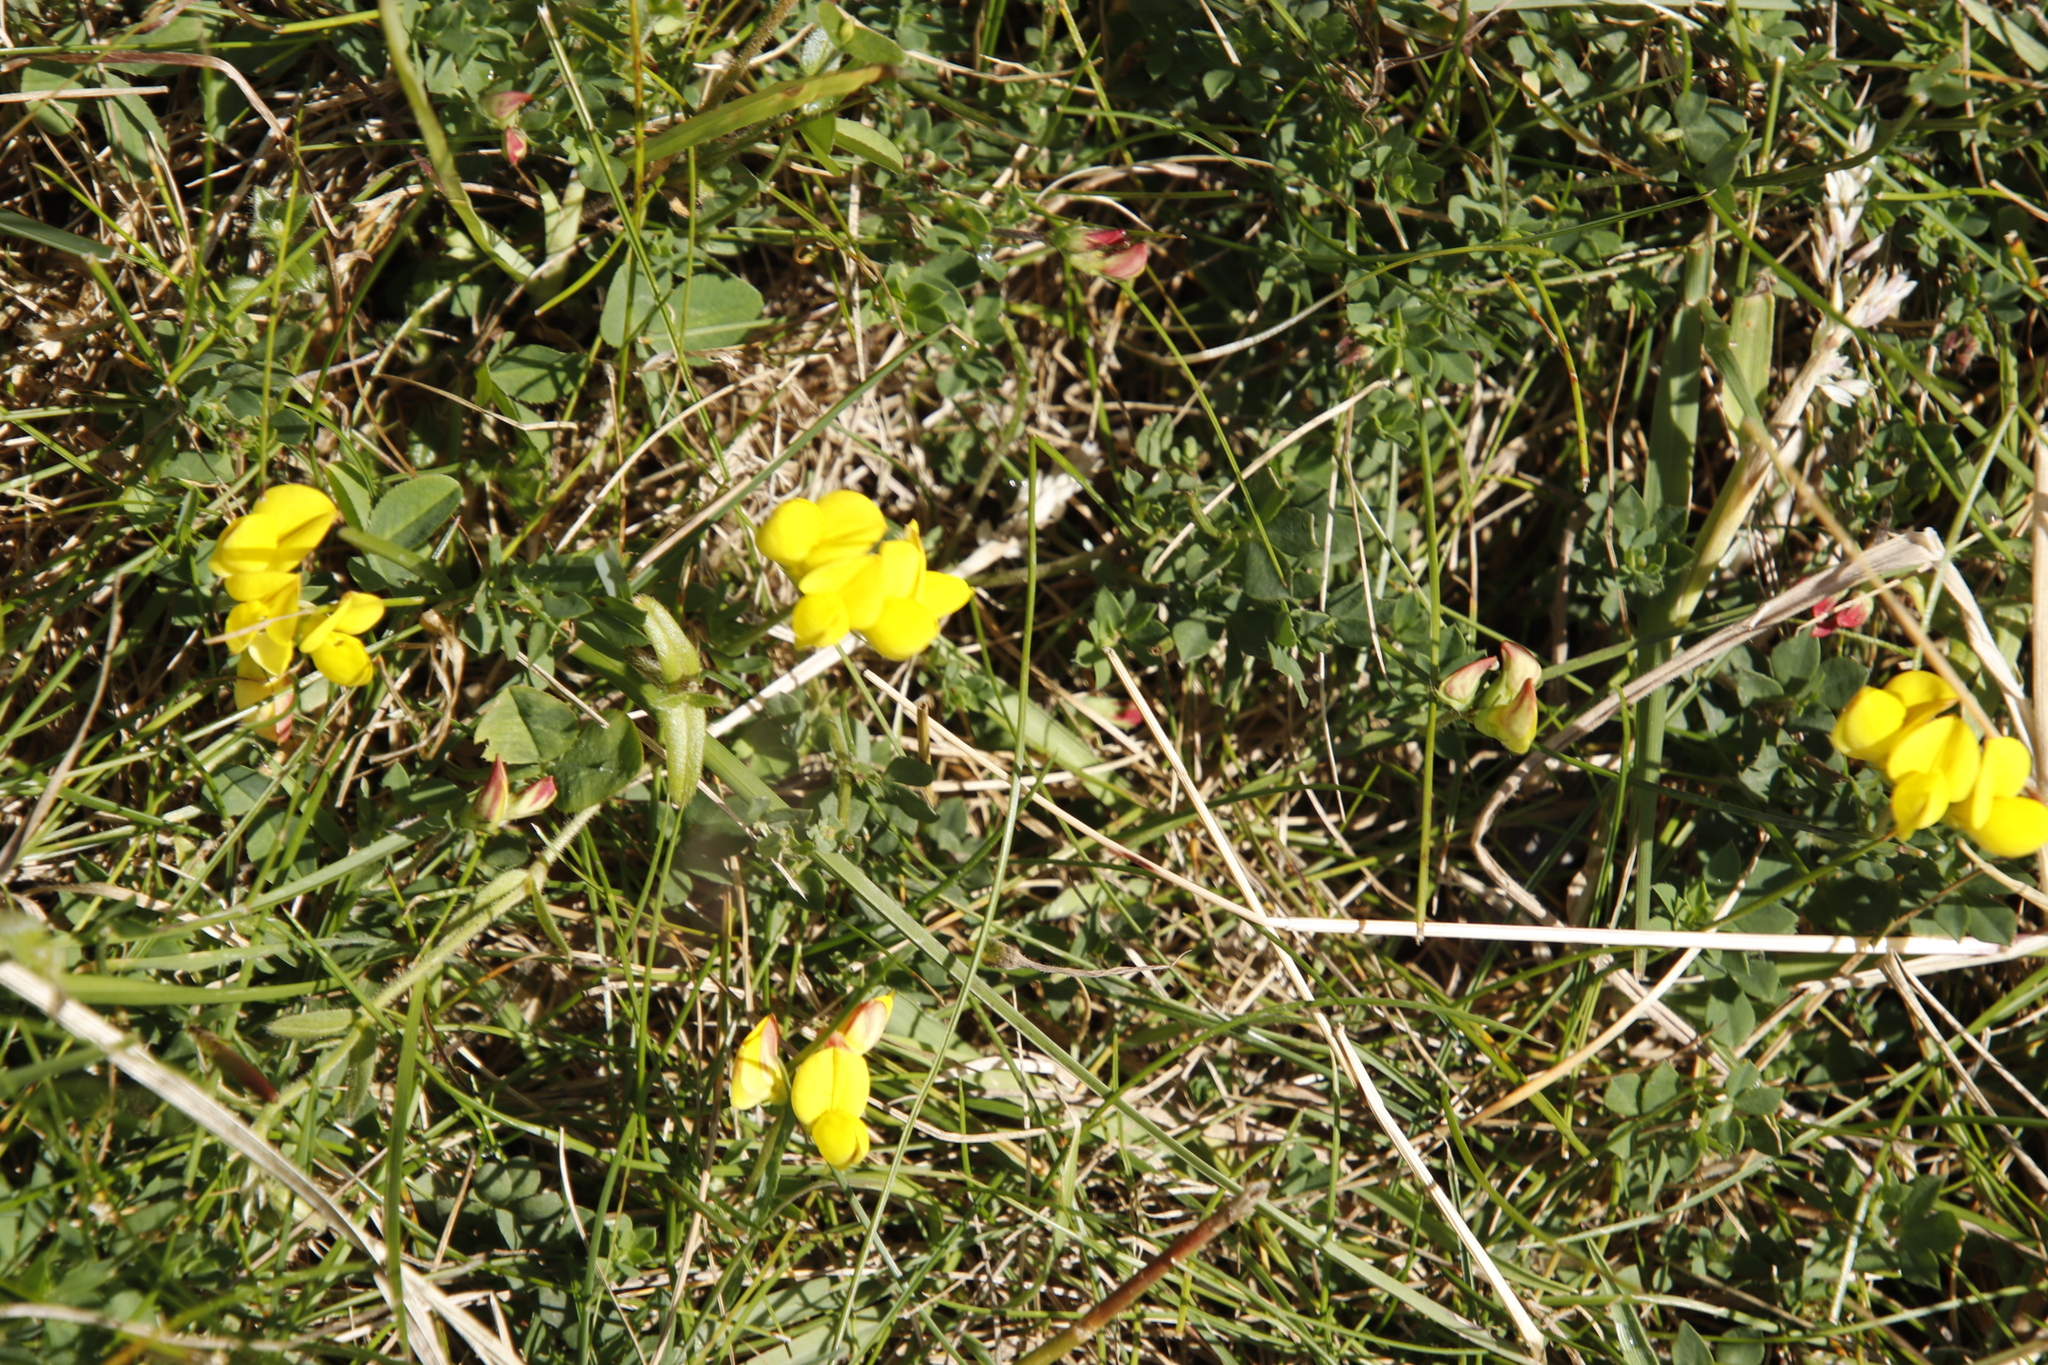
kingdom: Plantae
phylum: Tracheophyta
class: Magnoliopsida
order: Fabales
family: Fabaceae
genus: Lotus
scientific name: Lotus corniculatus
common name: Common bird's-foot-trefoil
